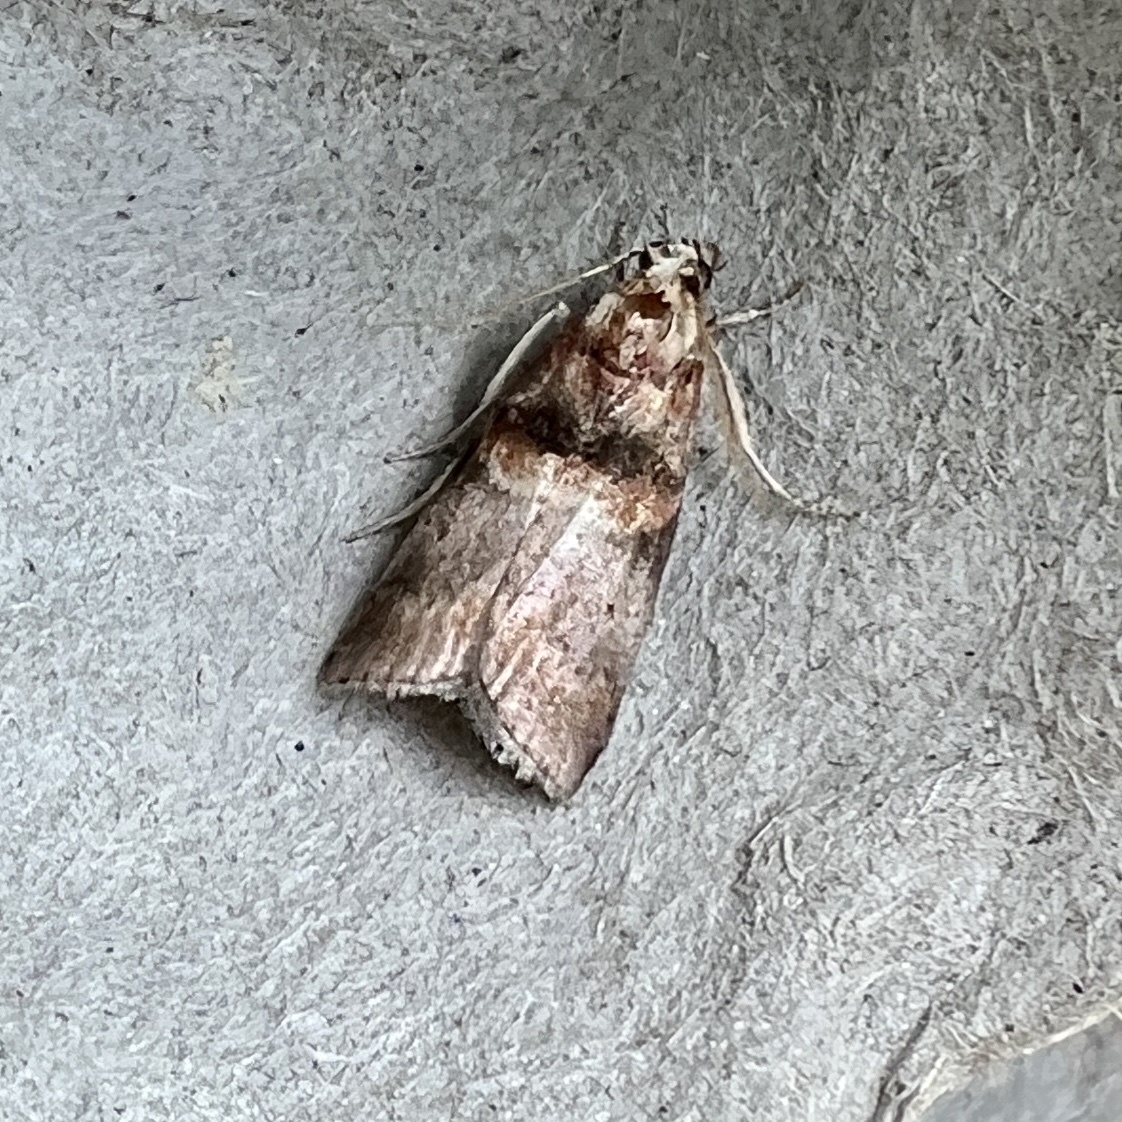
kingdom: Animalia
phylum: Arthropoda
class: Insecta
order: Lepidoptera
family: Pyralidae
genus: Acrobasis
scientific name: Acrobasis angusella
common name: Hickory leafstem borer moth
